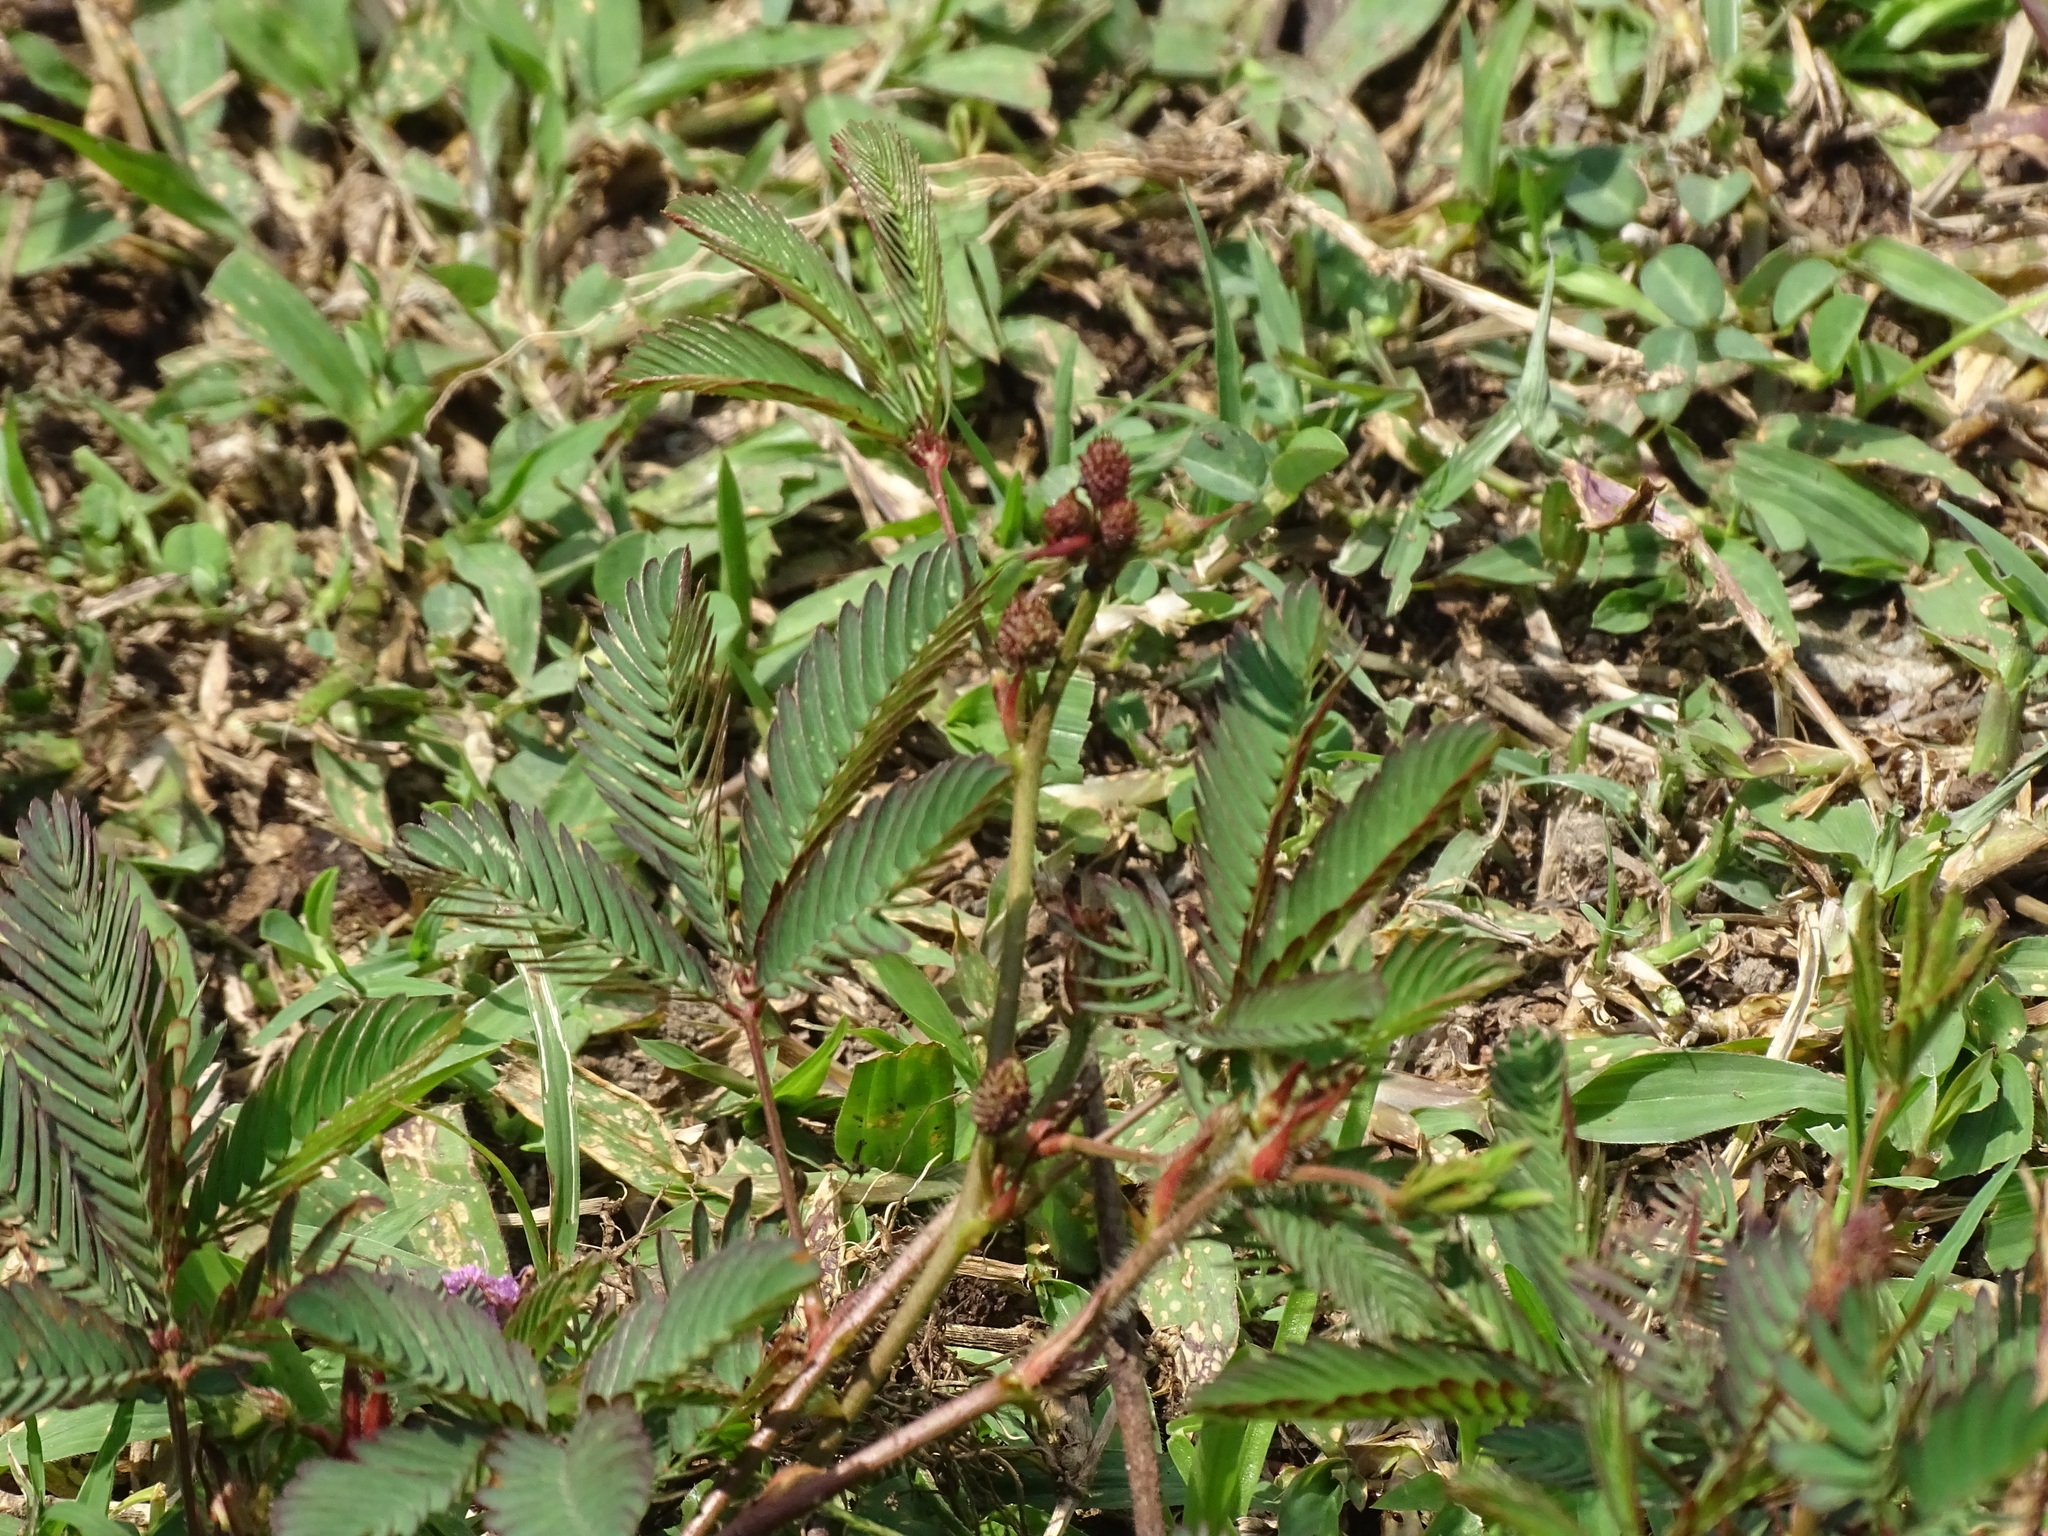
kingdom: Plantae
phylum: Tracheophyta
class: Magnoliopsida
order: Fabales
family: Fabaceae
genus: Mimosa
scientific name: Mimosa pudica
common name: Sensitive plant
